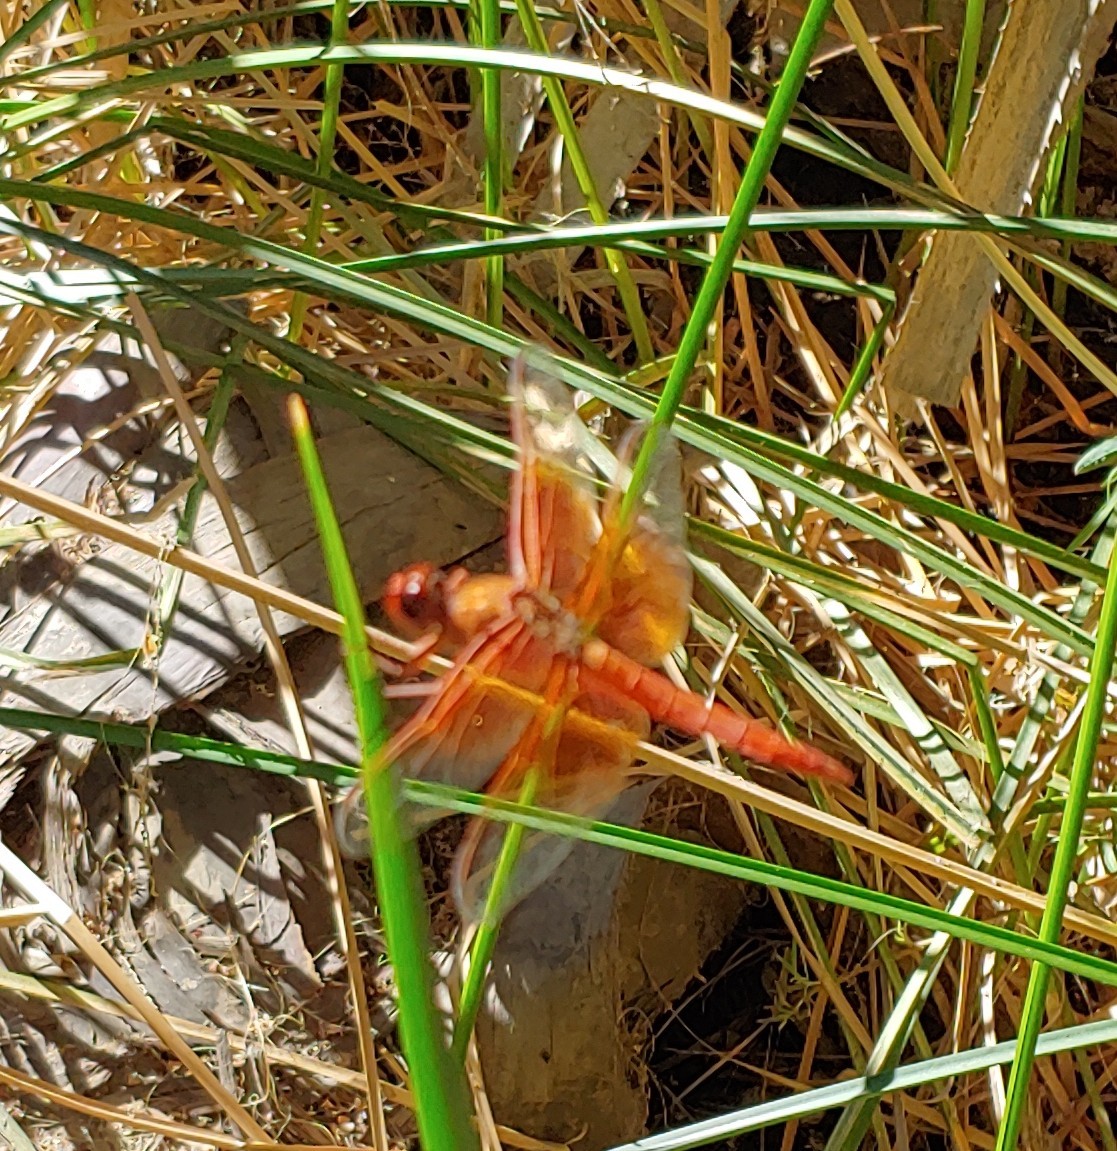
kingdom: Animalia
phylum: Arthropoda
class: Insecta
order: Odonata
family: Libellulidae
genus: Libellula
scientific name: Libellula saturata
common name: Flame skimmer
